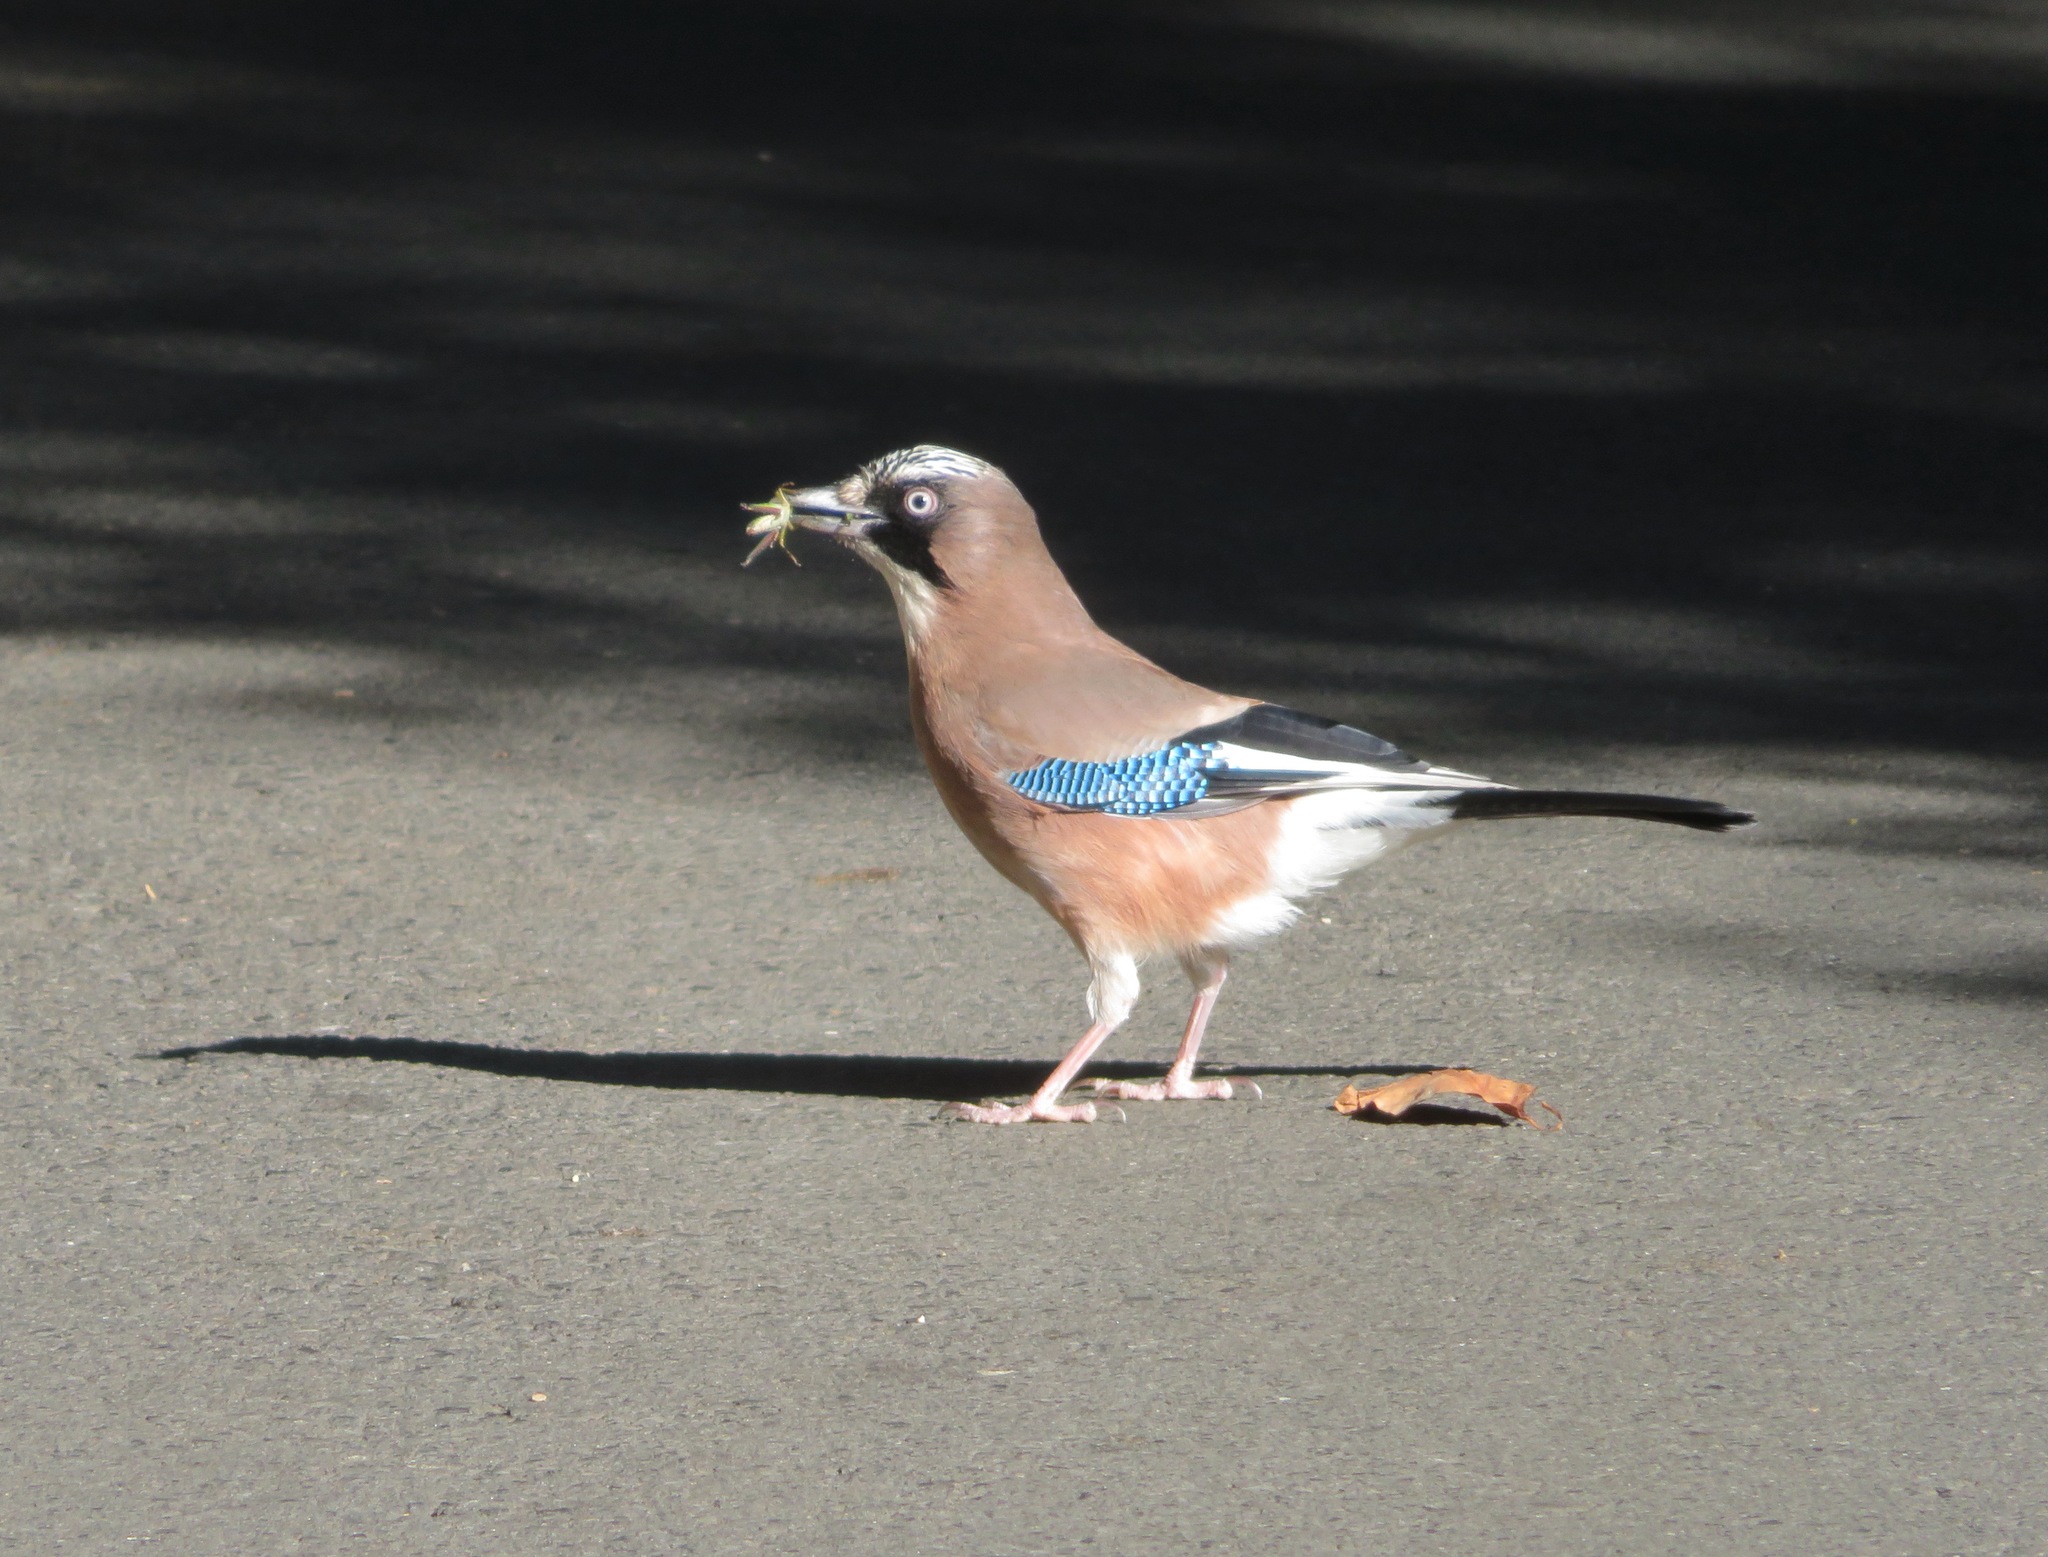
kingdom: Animalia
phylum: Chordata
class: Aves
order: Passeriformes
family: Corvidae
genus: Garrulus
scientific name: Garrulus glandarius
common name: Eurasian jay
